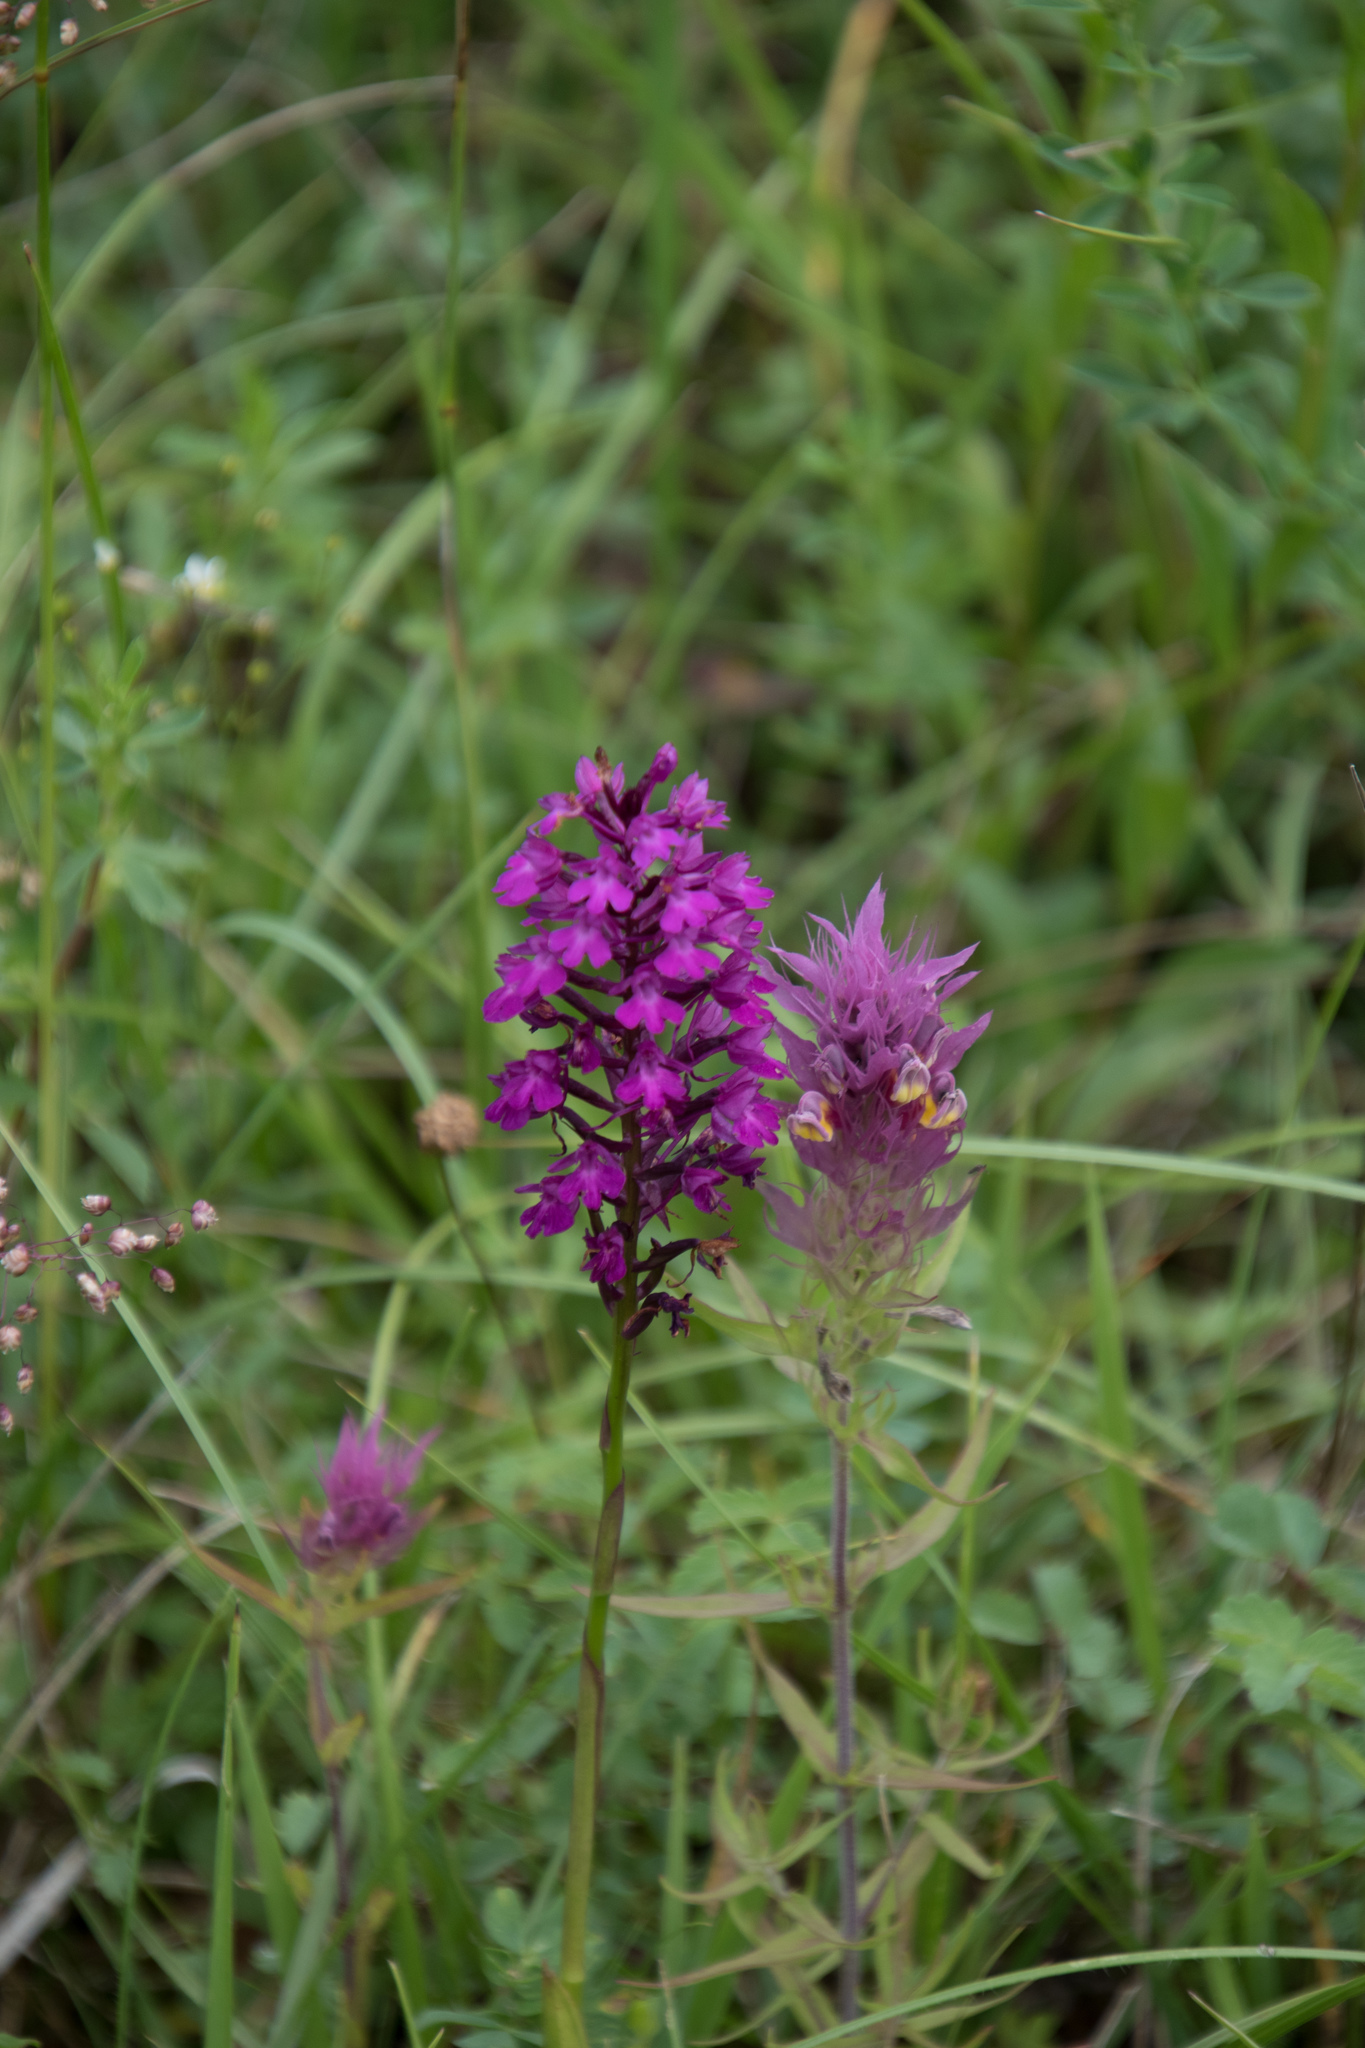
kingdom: Plantae
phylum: Tracheophyta
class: Liliopsida
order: Asparagales
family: Orchidaceae
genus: Anacamptis
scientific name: Anacamptis pyramidalis
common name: Pyramidal orchid
